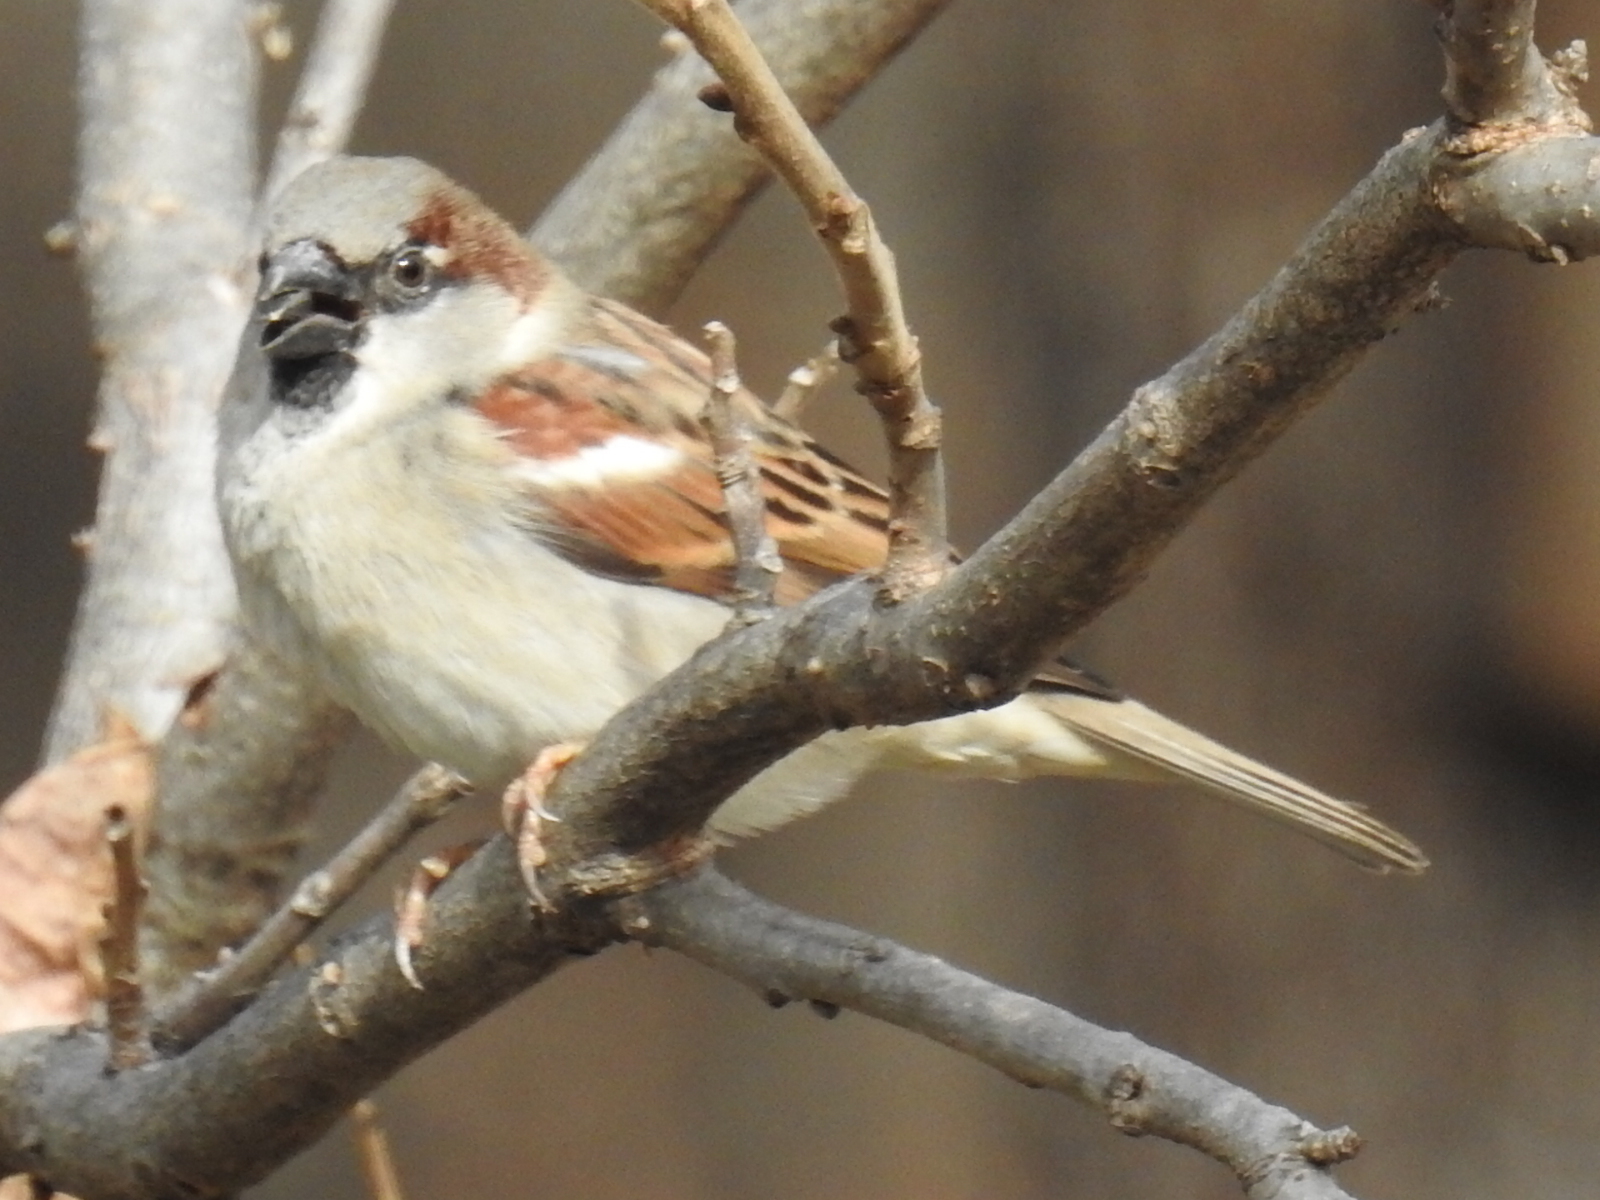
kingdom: Animalia
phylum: Chordata
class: Aves
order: Passeriformes
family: Passeridae
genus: Passer
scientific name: Passer domesticus
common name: House sparrow
